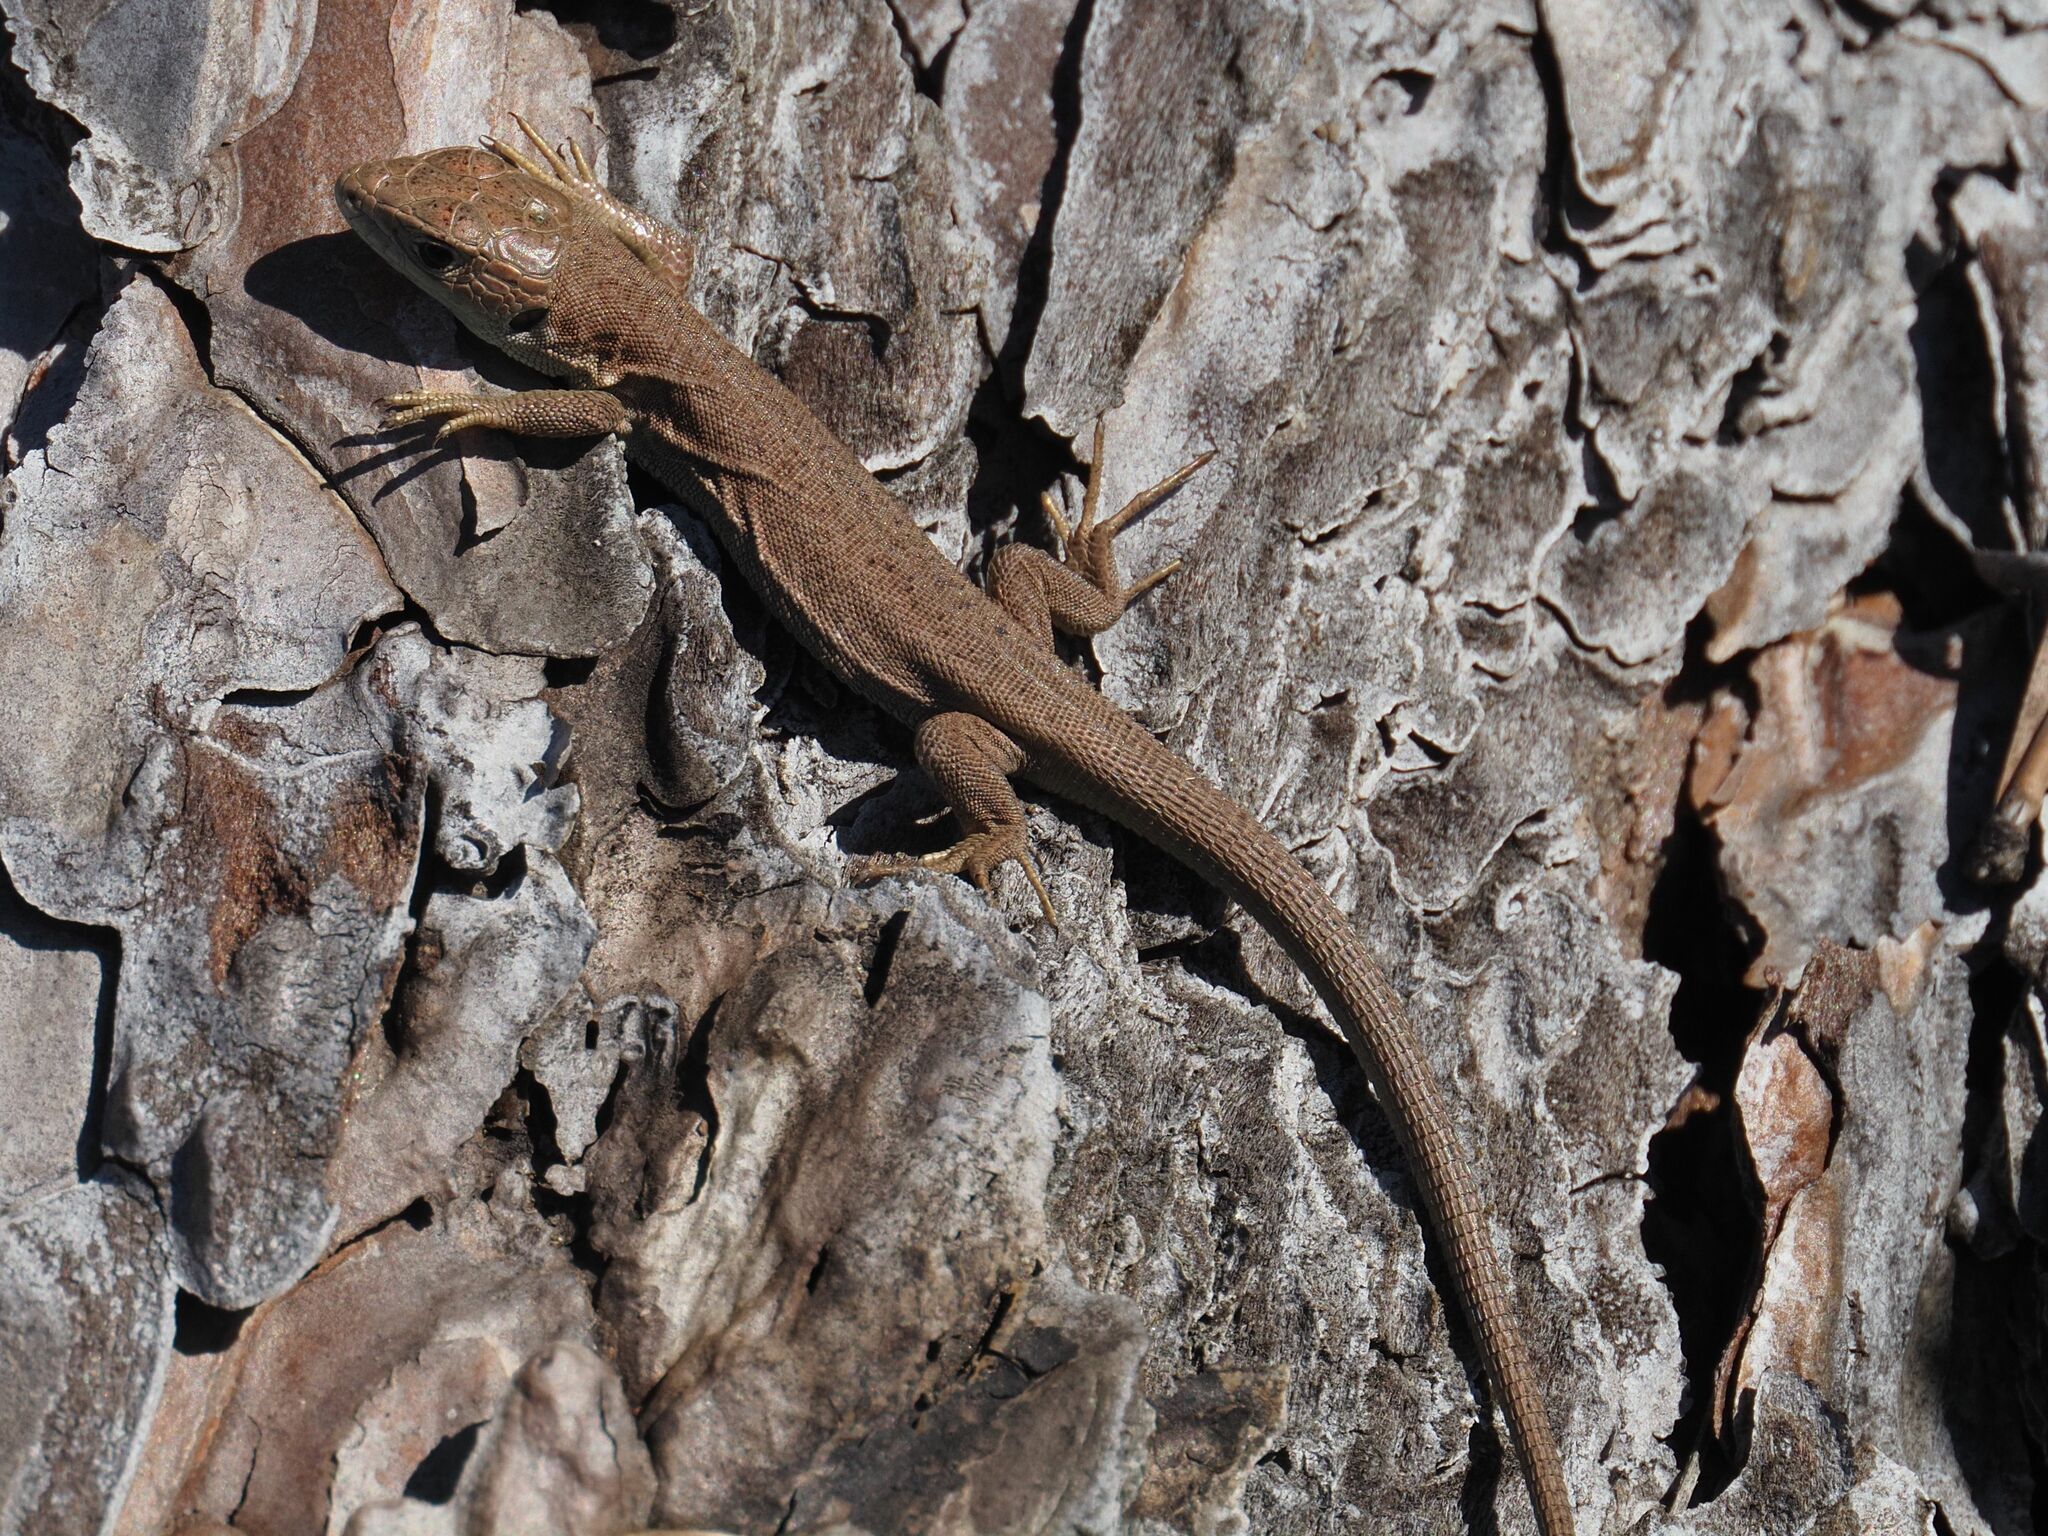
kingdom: Animalia
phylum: Chordata
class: Squamata
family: Lacertidae
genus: Lacerta
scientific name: Lacerta viridis
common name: European green lizard
